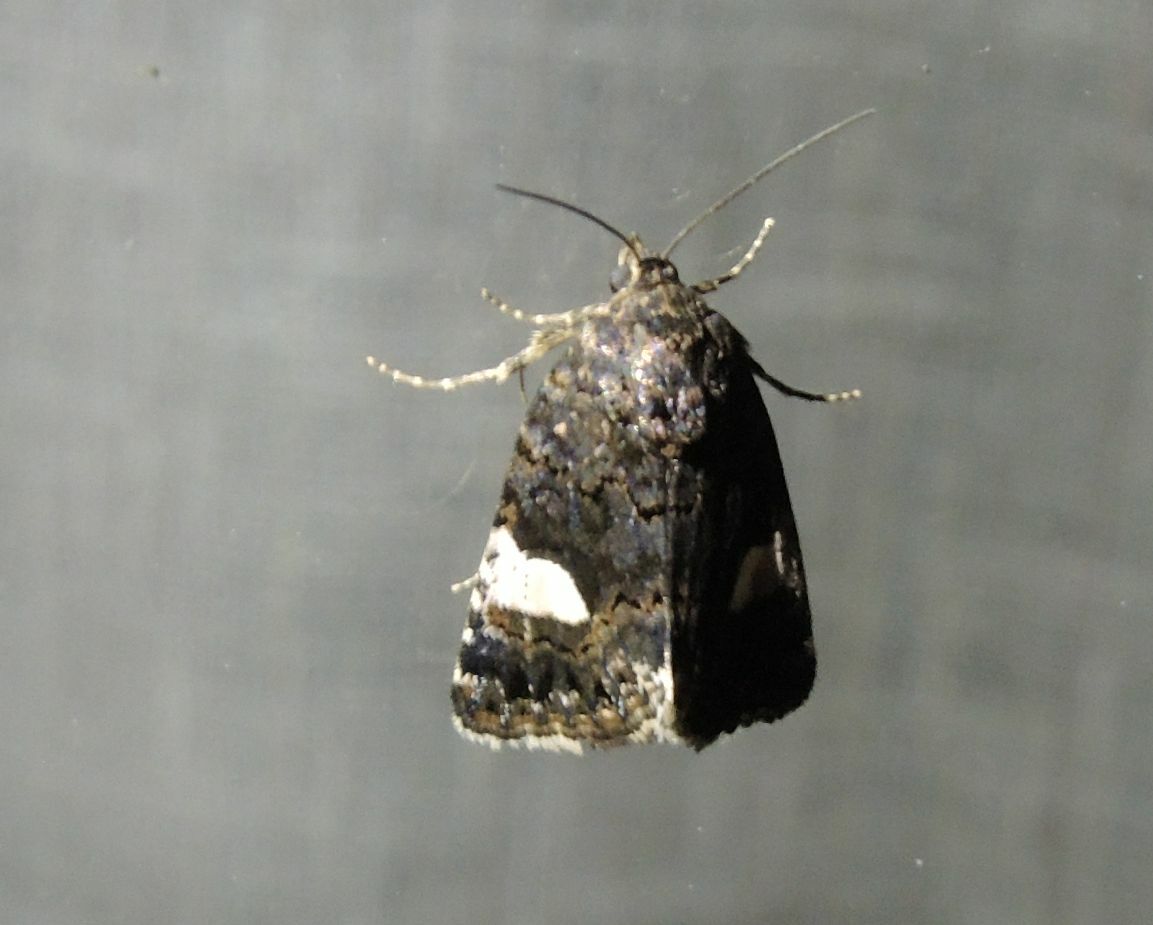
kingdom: Animalia
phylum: Arthropoda
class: Insecta
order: Lepidoptera
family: Erebidae
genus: Tyta
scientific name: Tyta luctuosa
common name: Four-spotted
